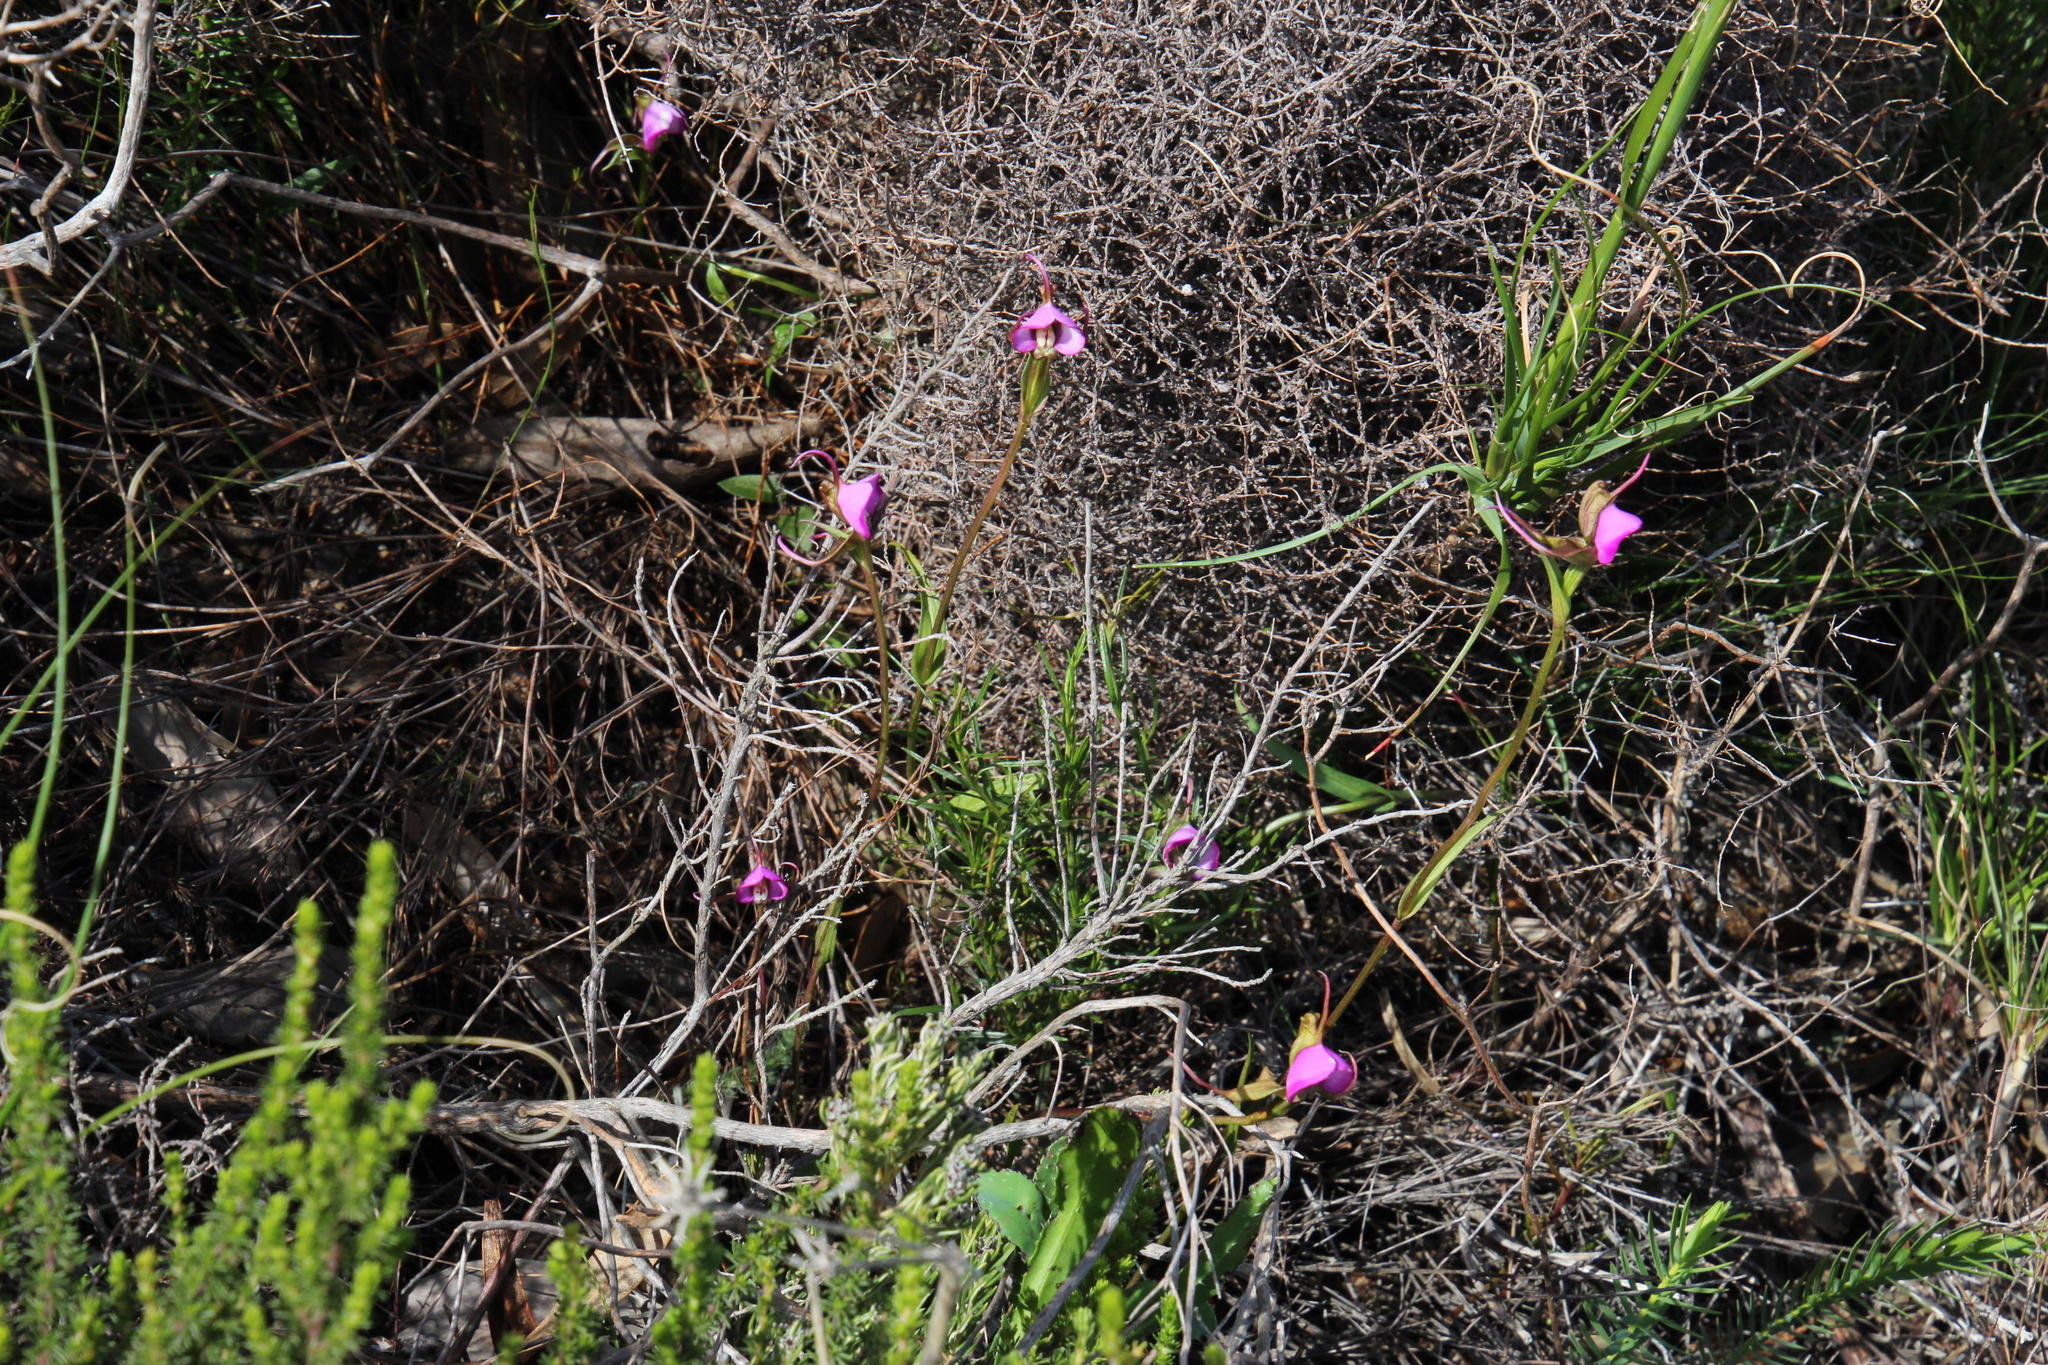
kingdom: Plantae
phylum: Tracheophyta
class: Liliopsida
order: Asparagales
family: Orchidaceae
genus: Disperis
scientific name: Disperis capensis
